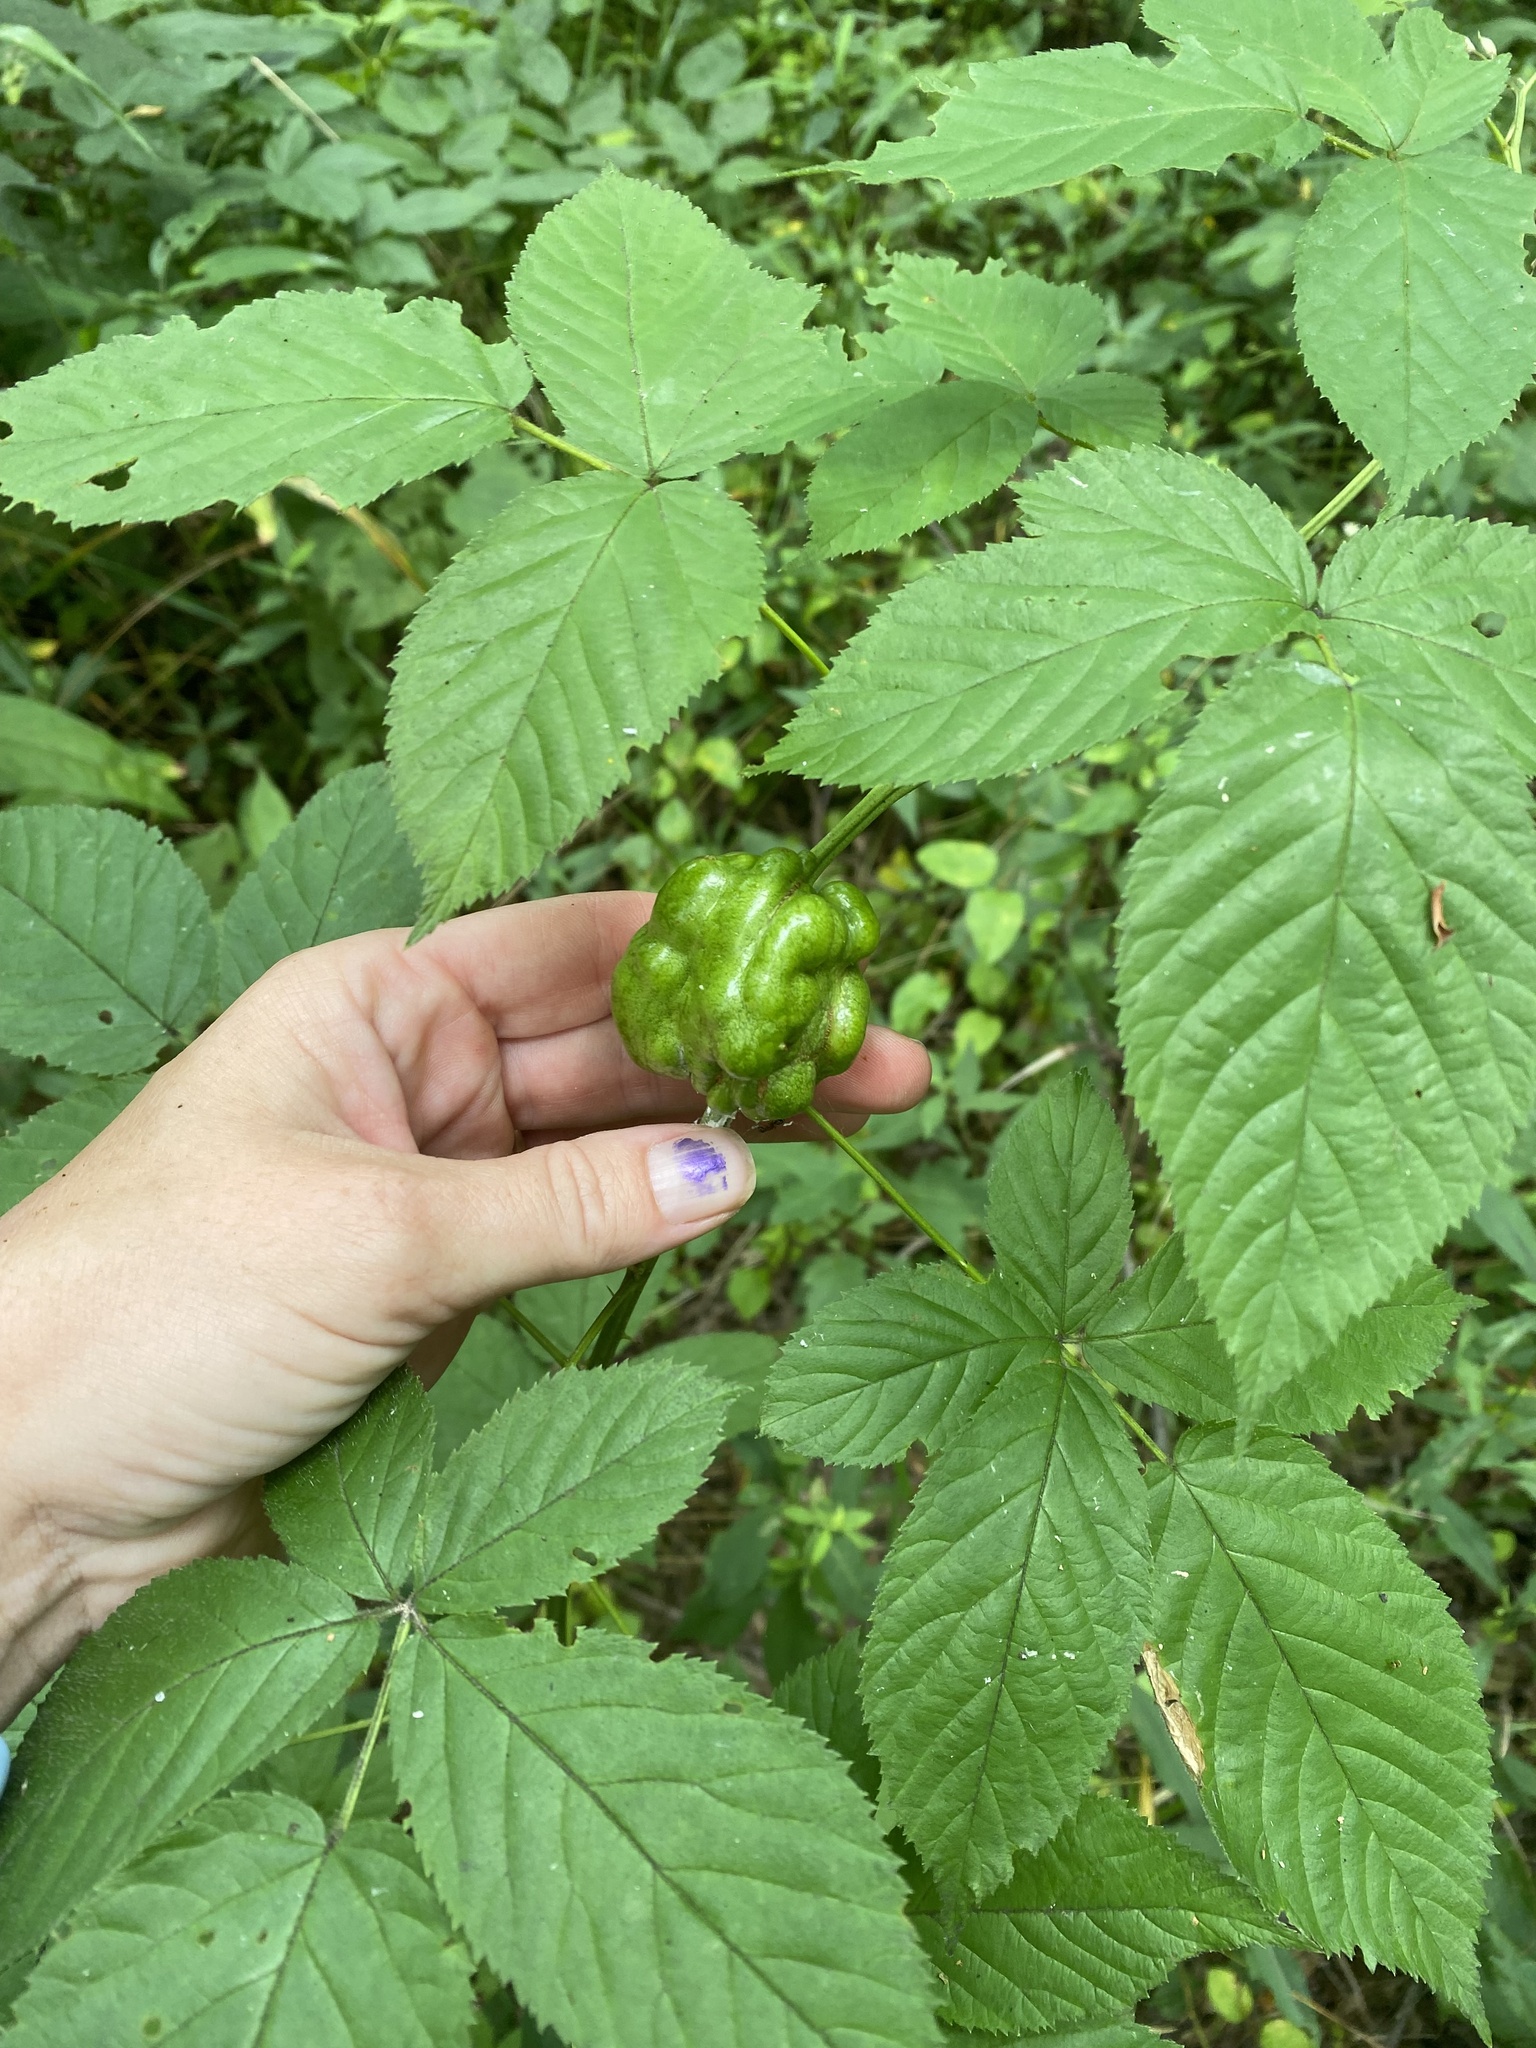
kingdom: Animalia
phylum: Arthropoda
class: Insecta
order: Hymenoptera
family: Cynipidae
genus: Diastrophus
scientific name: Diastrophus
